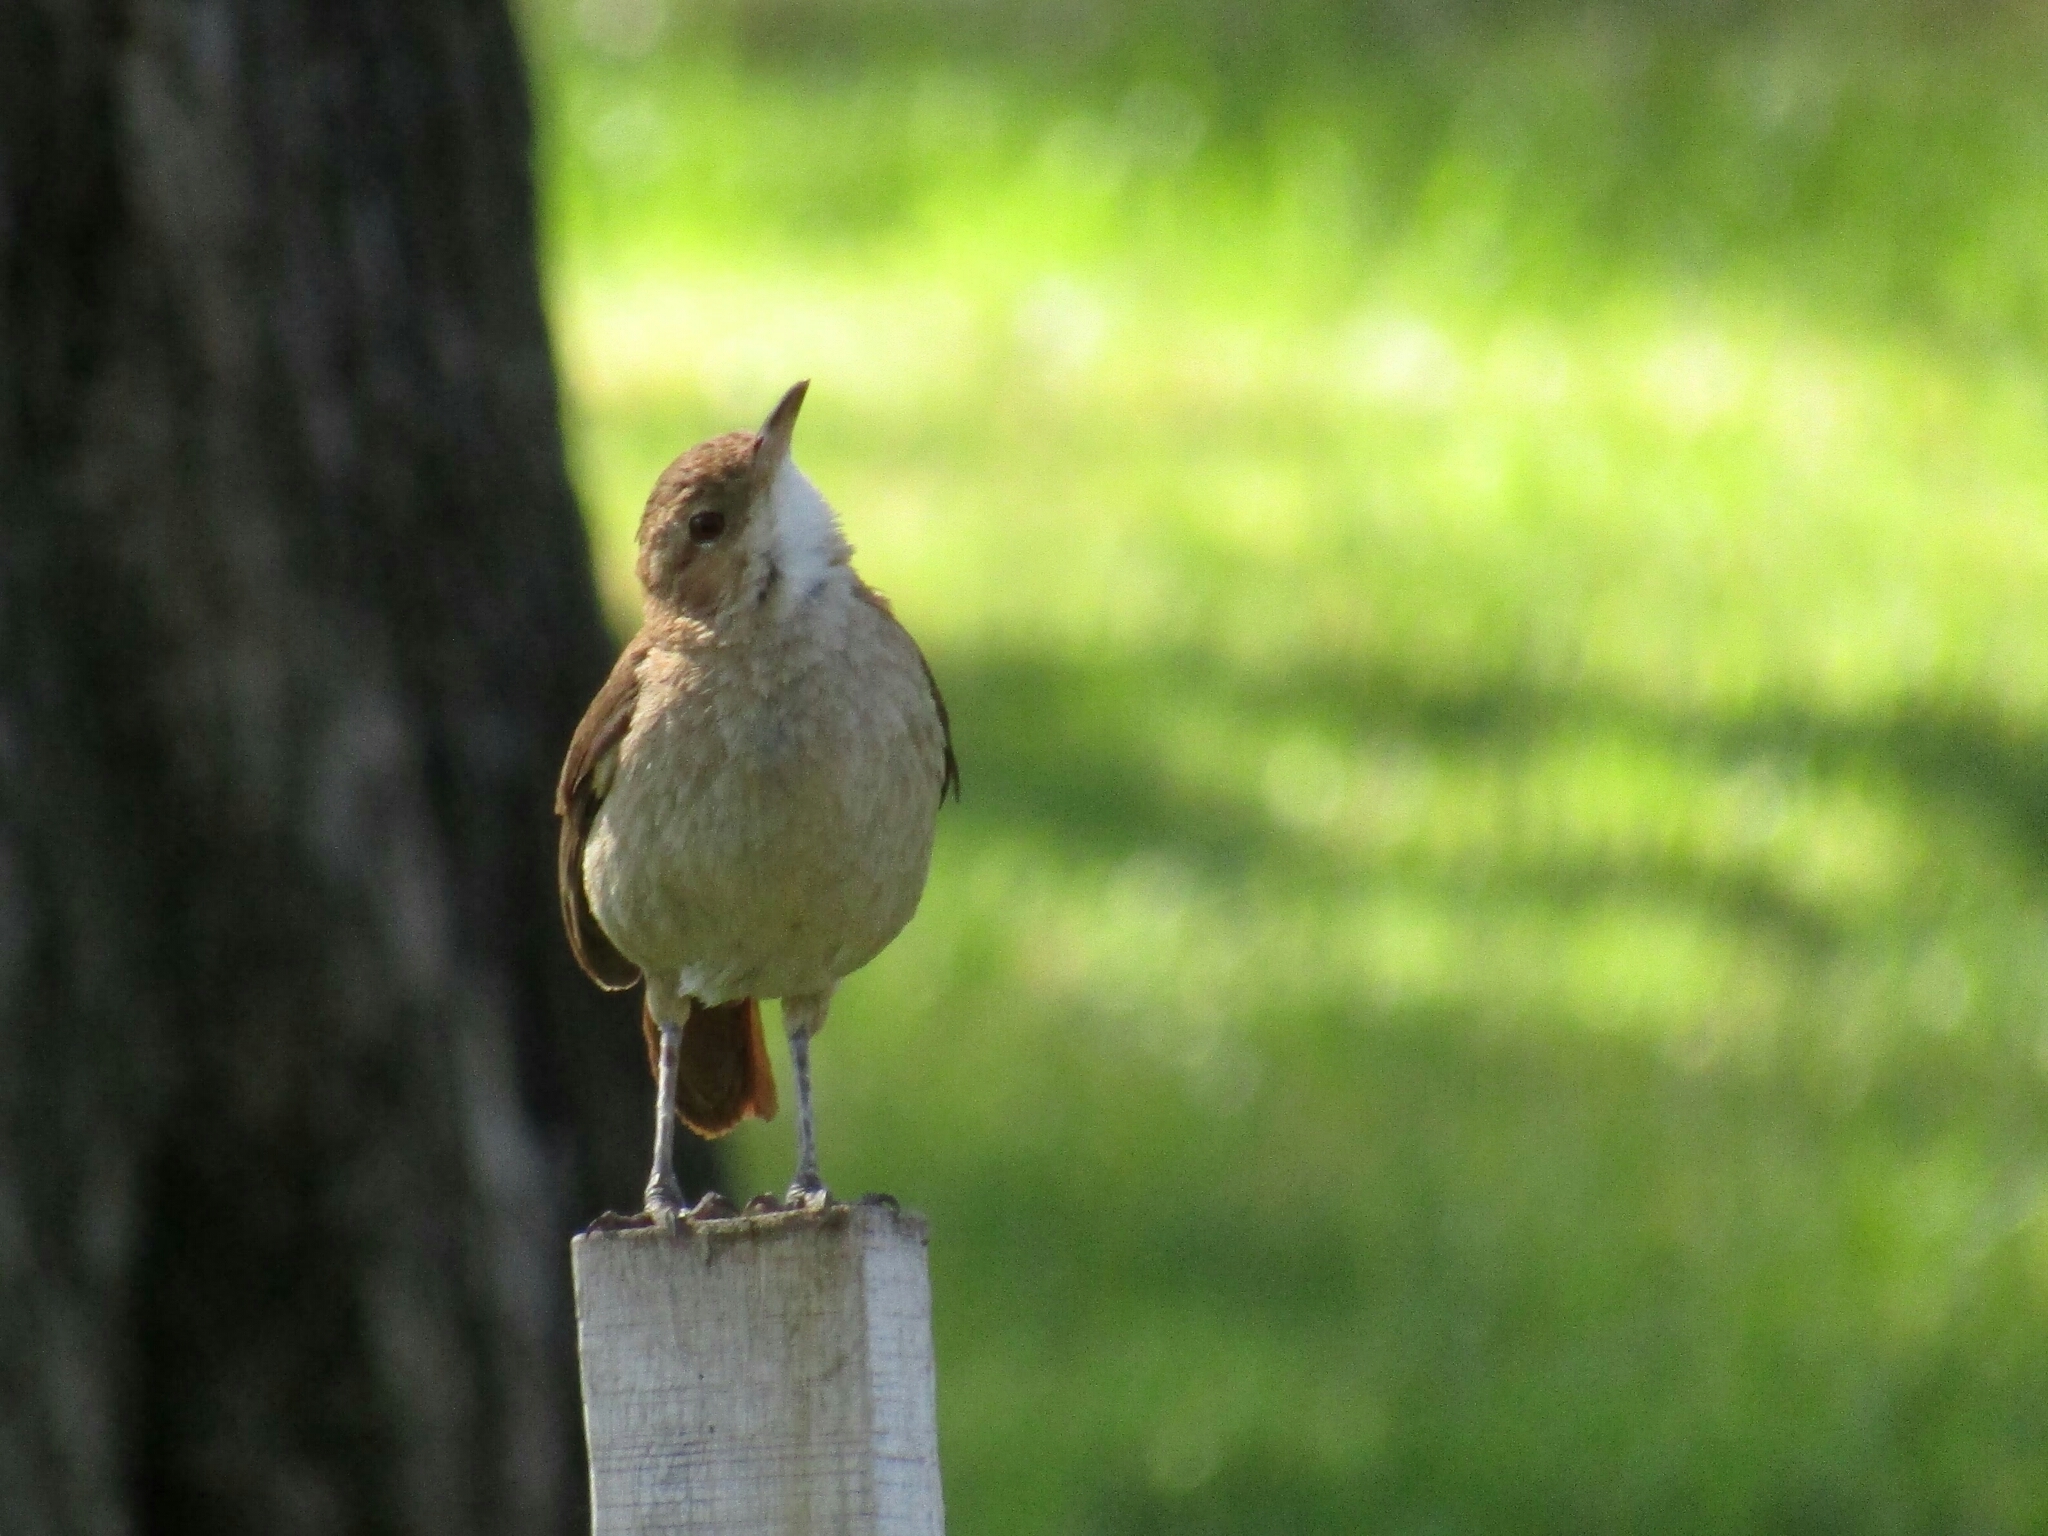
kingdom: Animalia
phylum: Chordata
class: Aves
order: Passeriformes
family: Furnariidae
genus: Furnarius
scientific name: Furnarius rufus
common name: Rufous hornero
